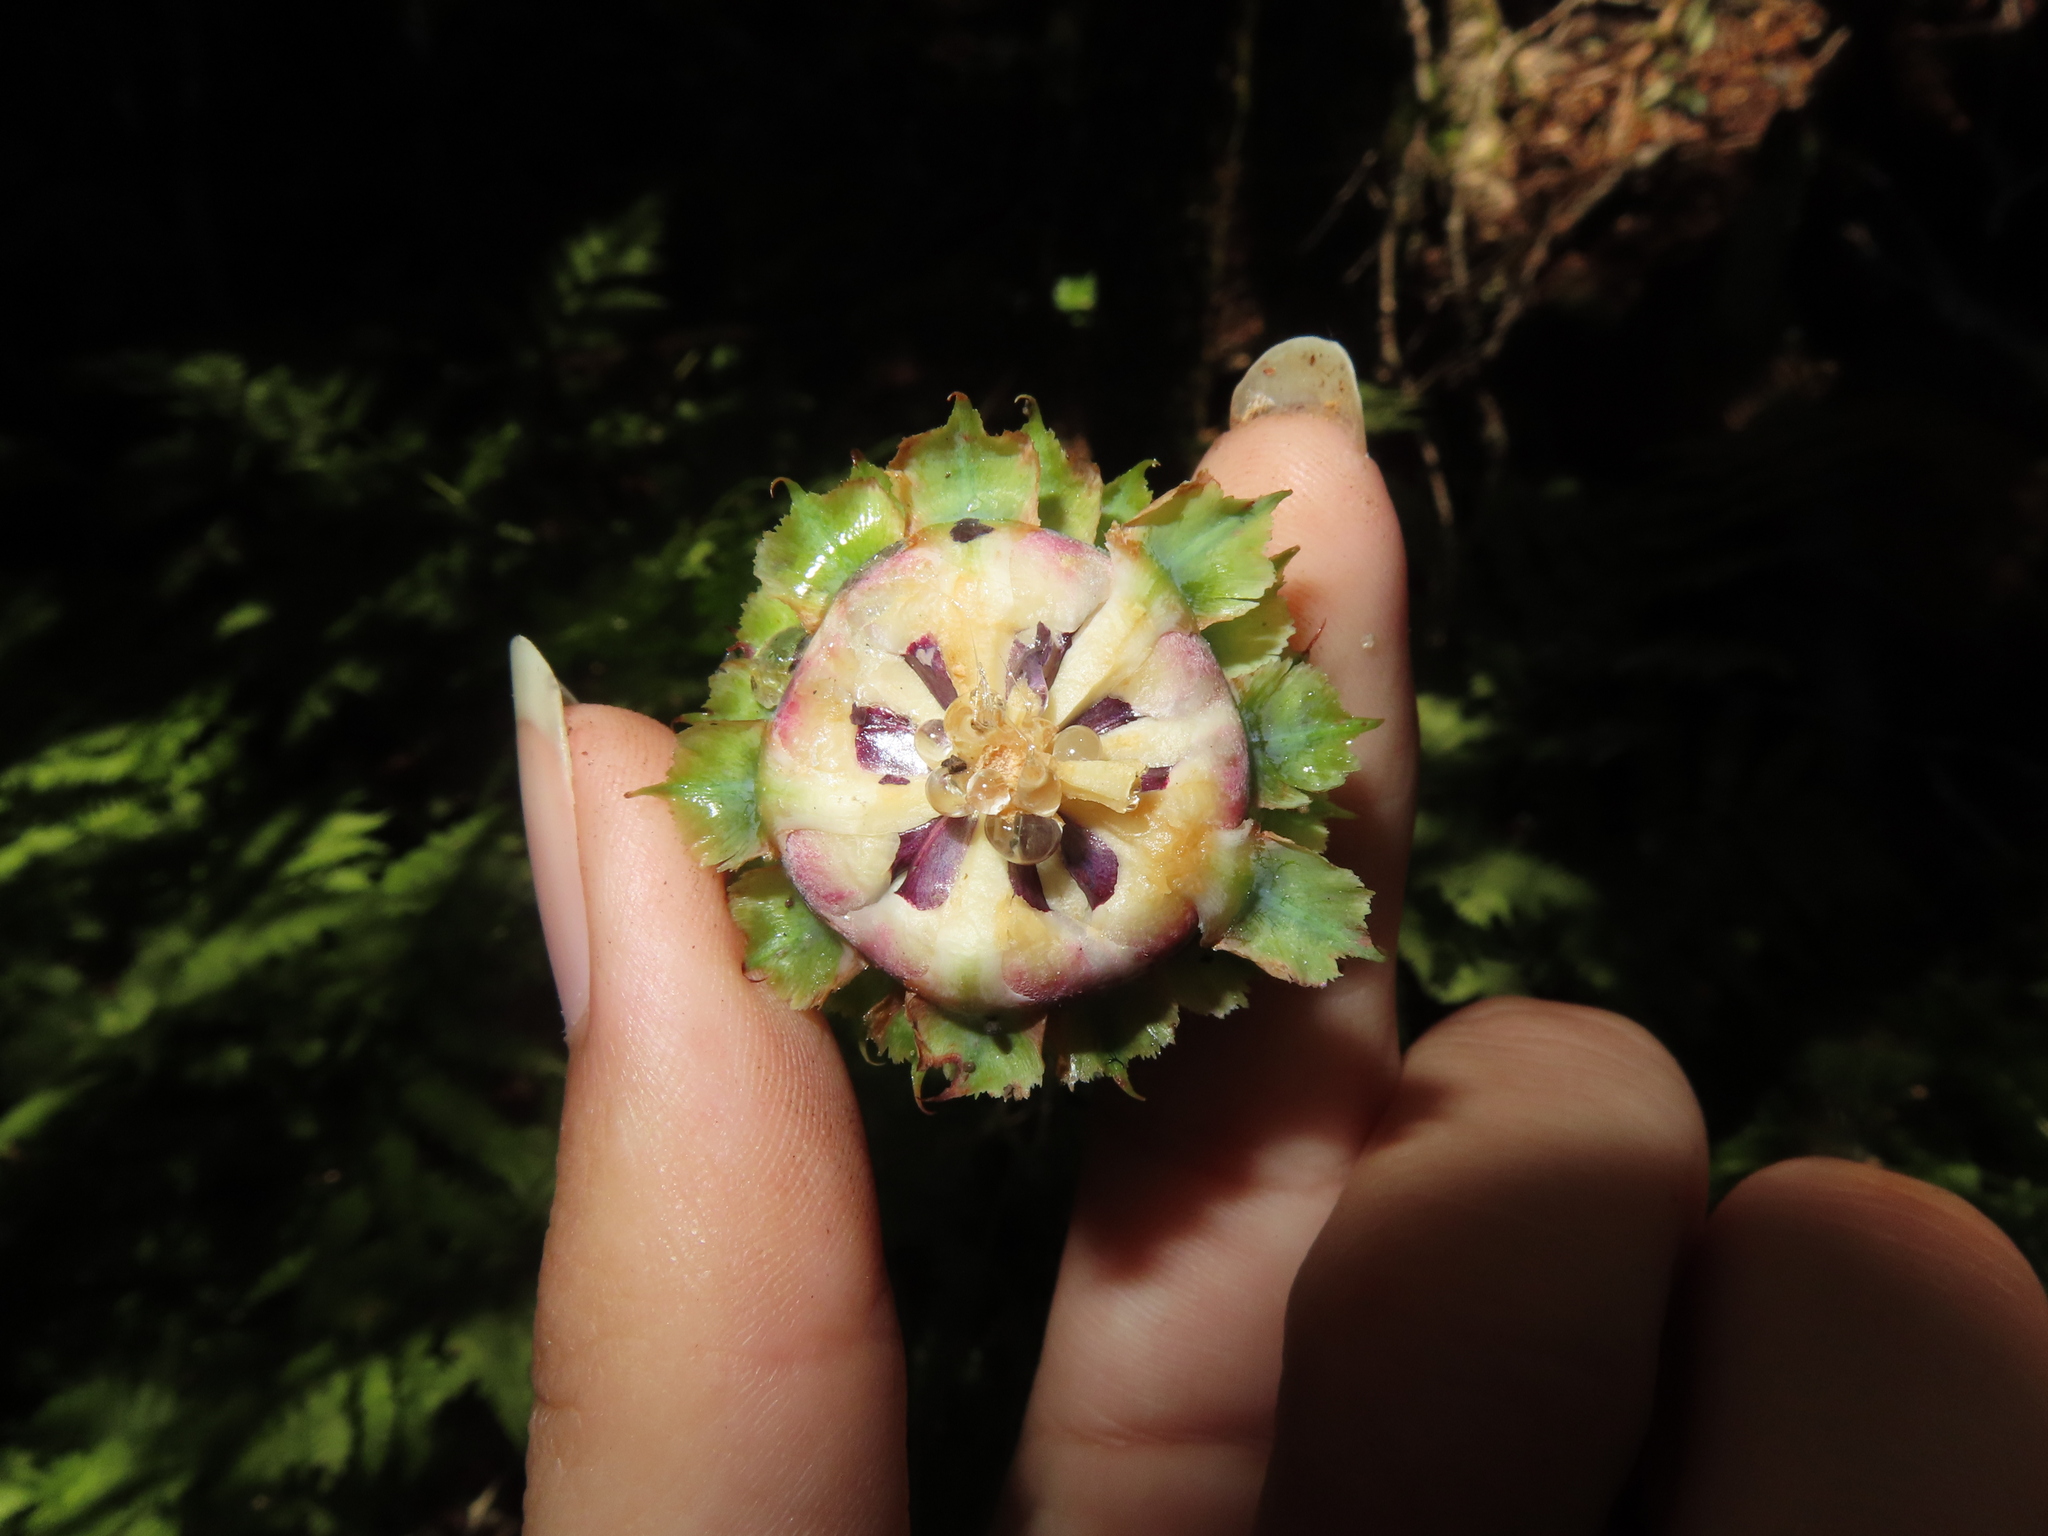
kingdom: Plantae
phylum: Tracheophyta
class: Pinopsida
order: Pinales
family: Pinaceae
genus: Abies
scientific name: Abies fraseri
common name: Fraser fir
